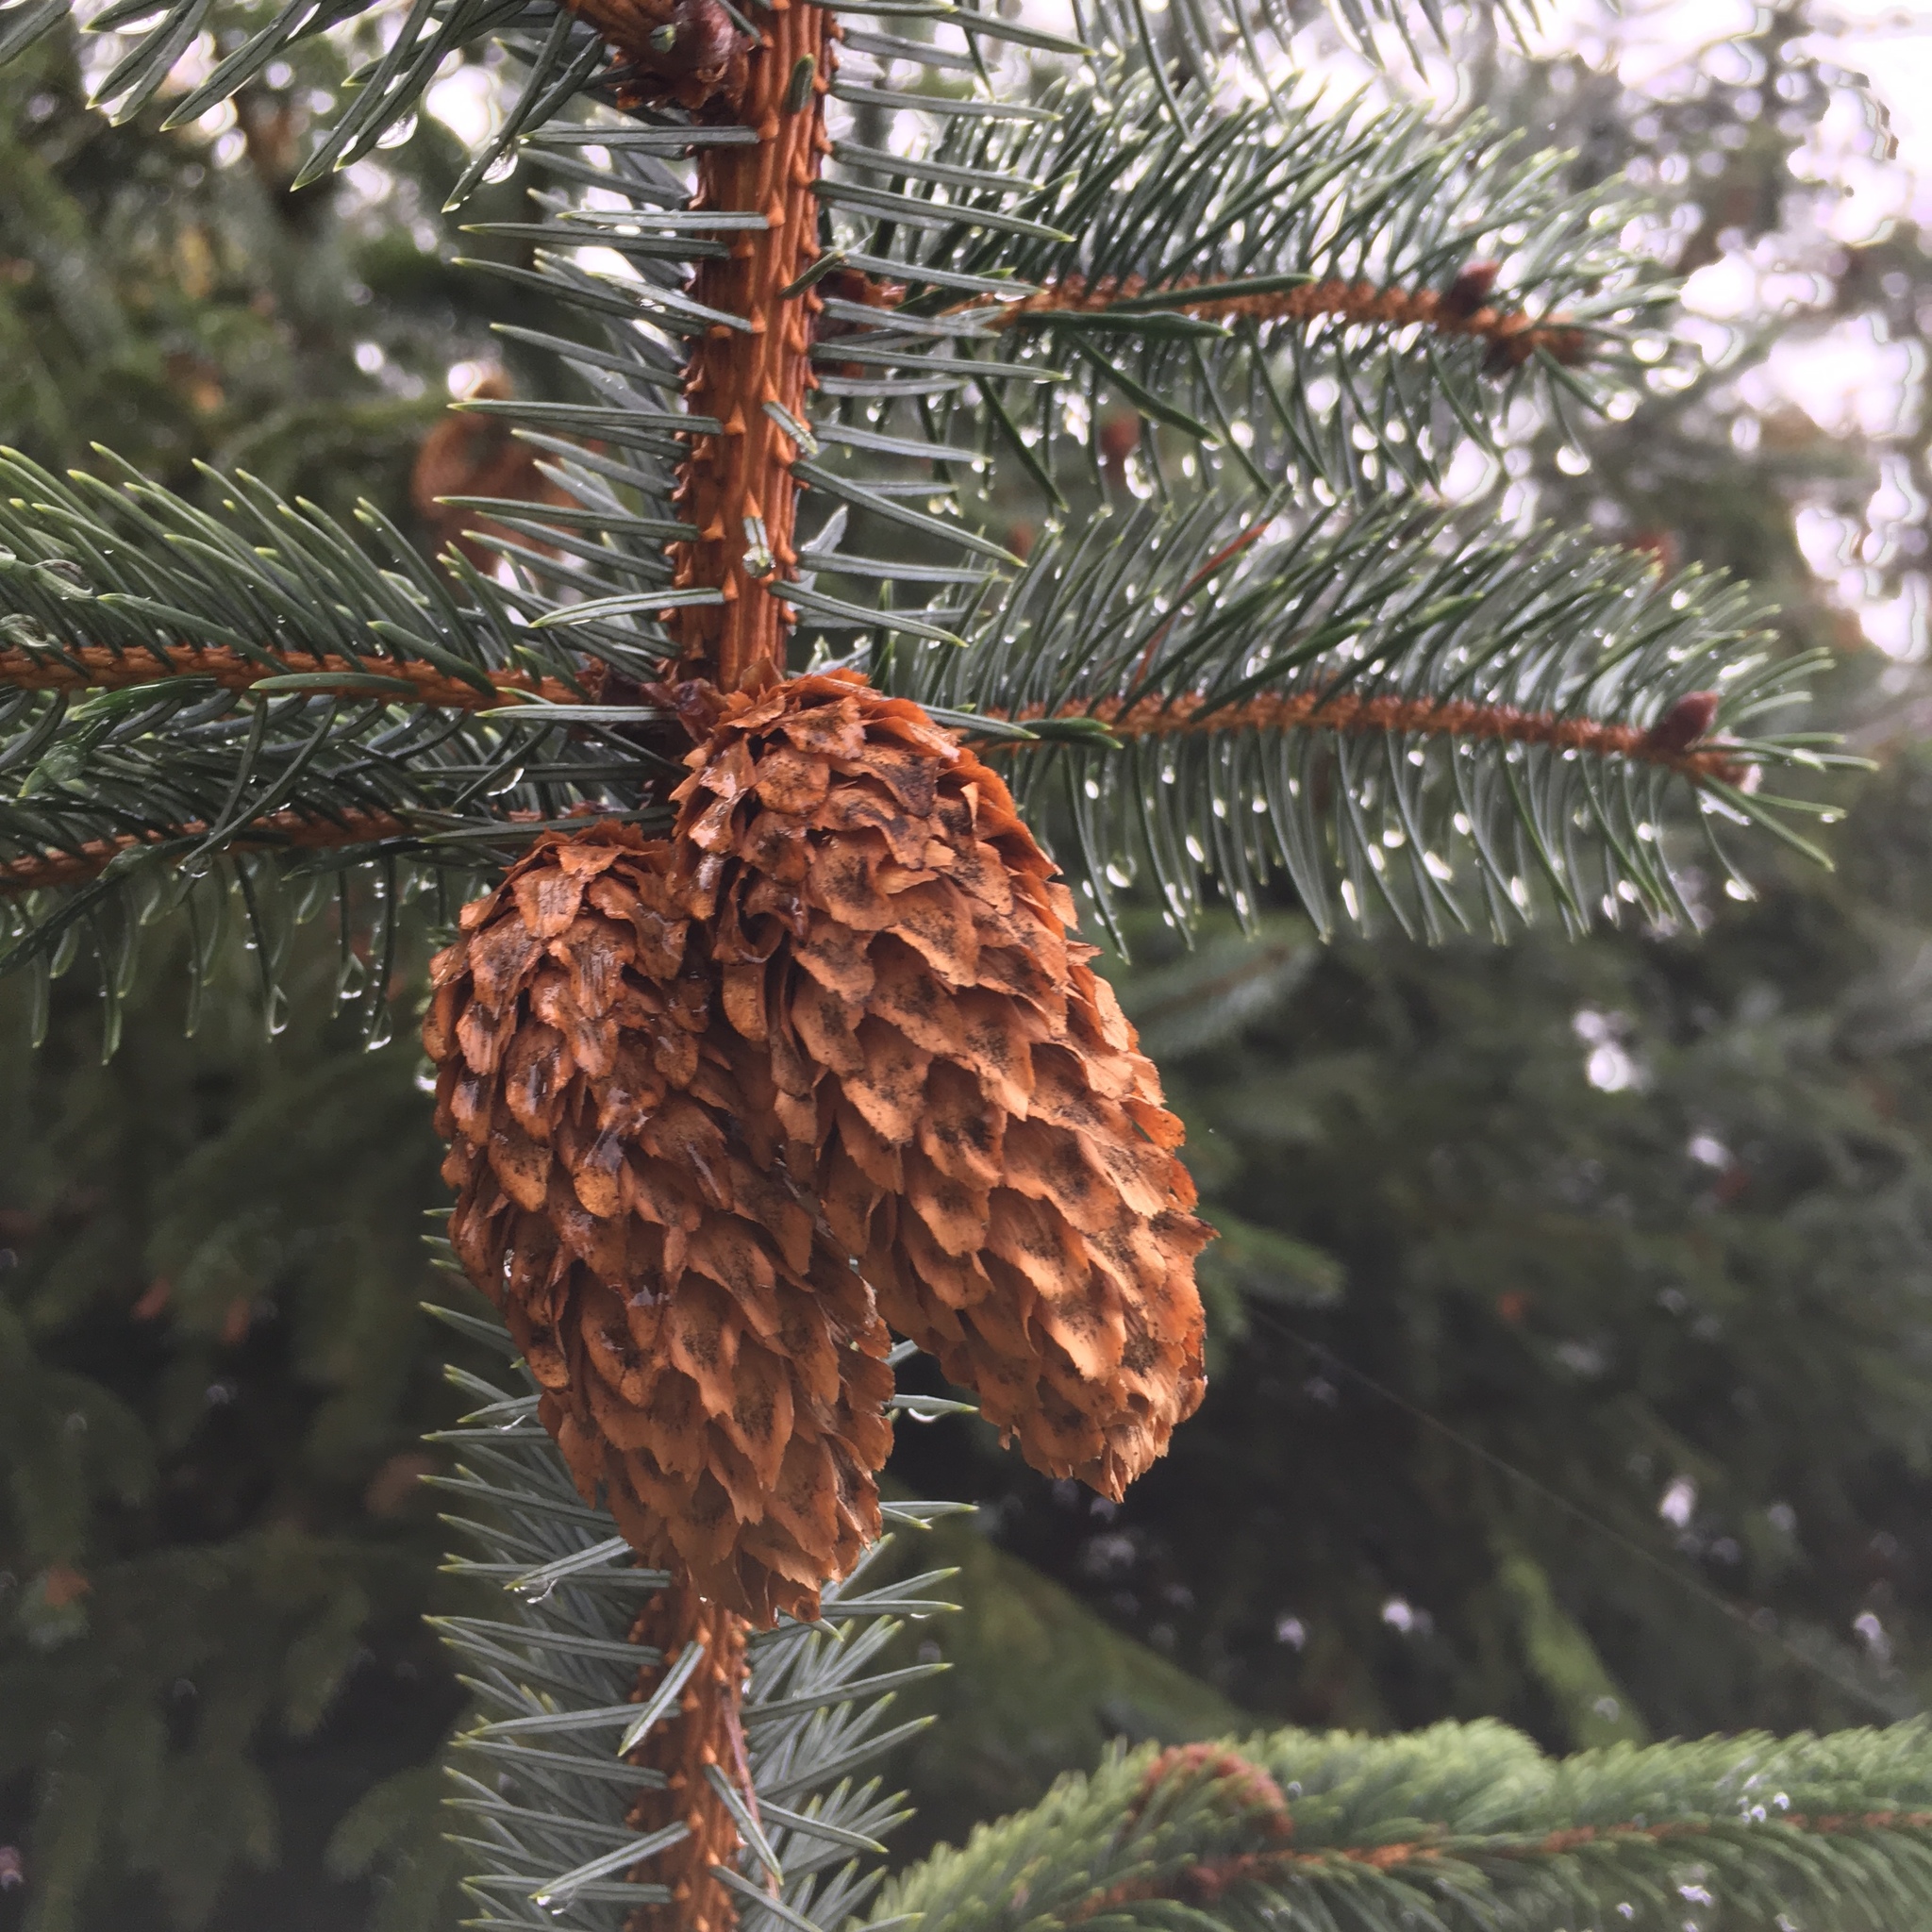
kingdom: Plantae
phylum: Tracheophyta
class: Pinopsida
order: Pinales
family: Pinaceae
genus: Picea
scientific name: Picea sitchensis
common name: Sitka spruce
